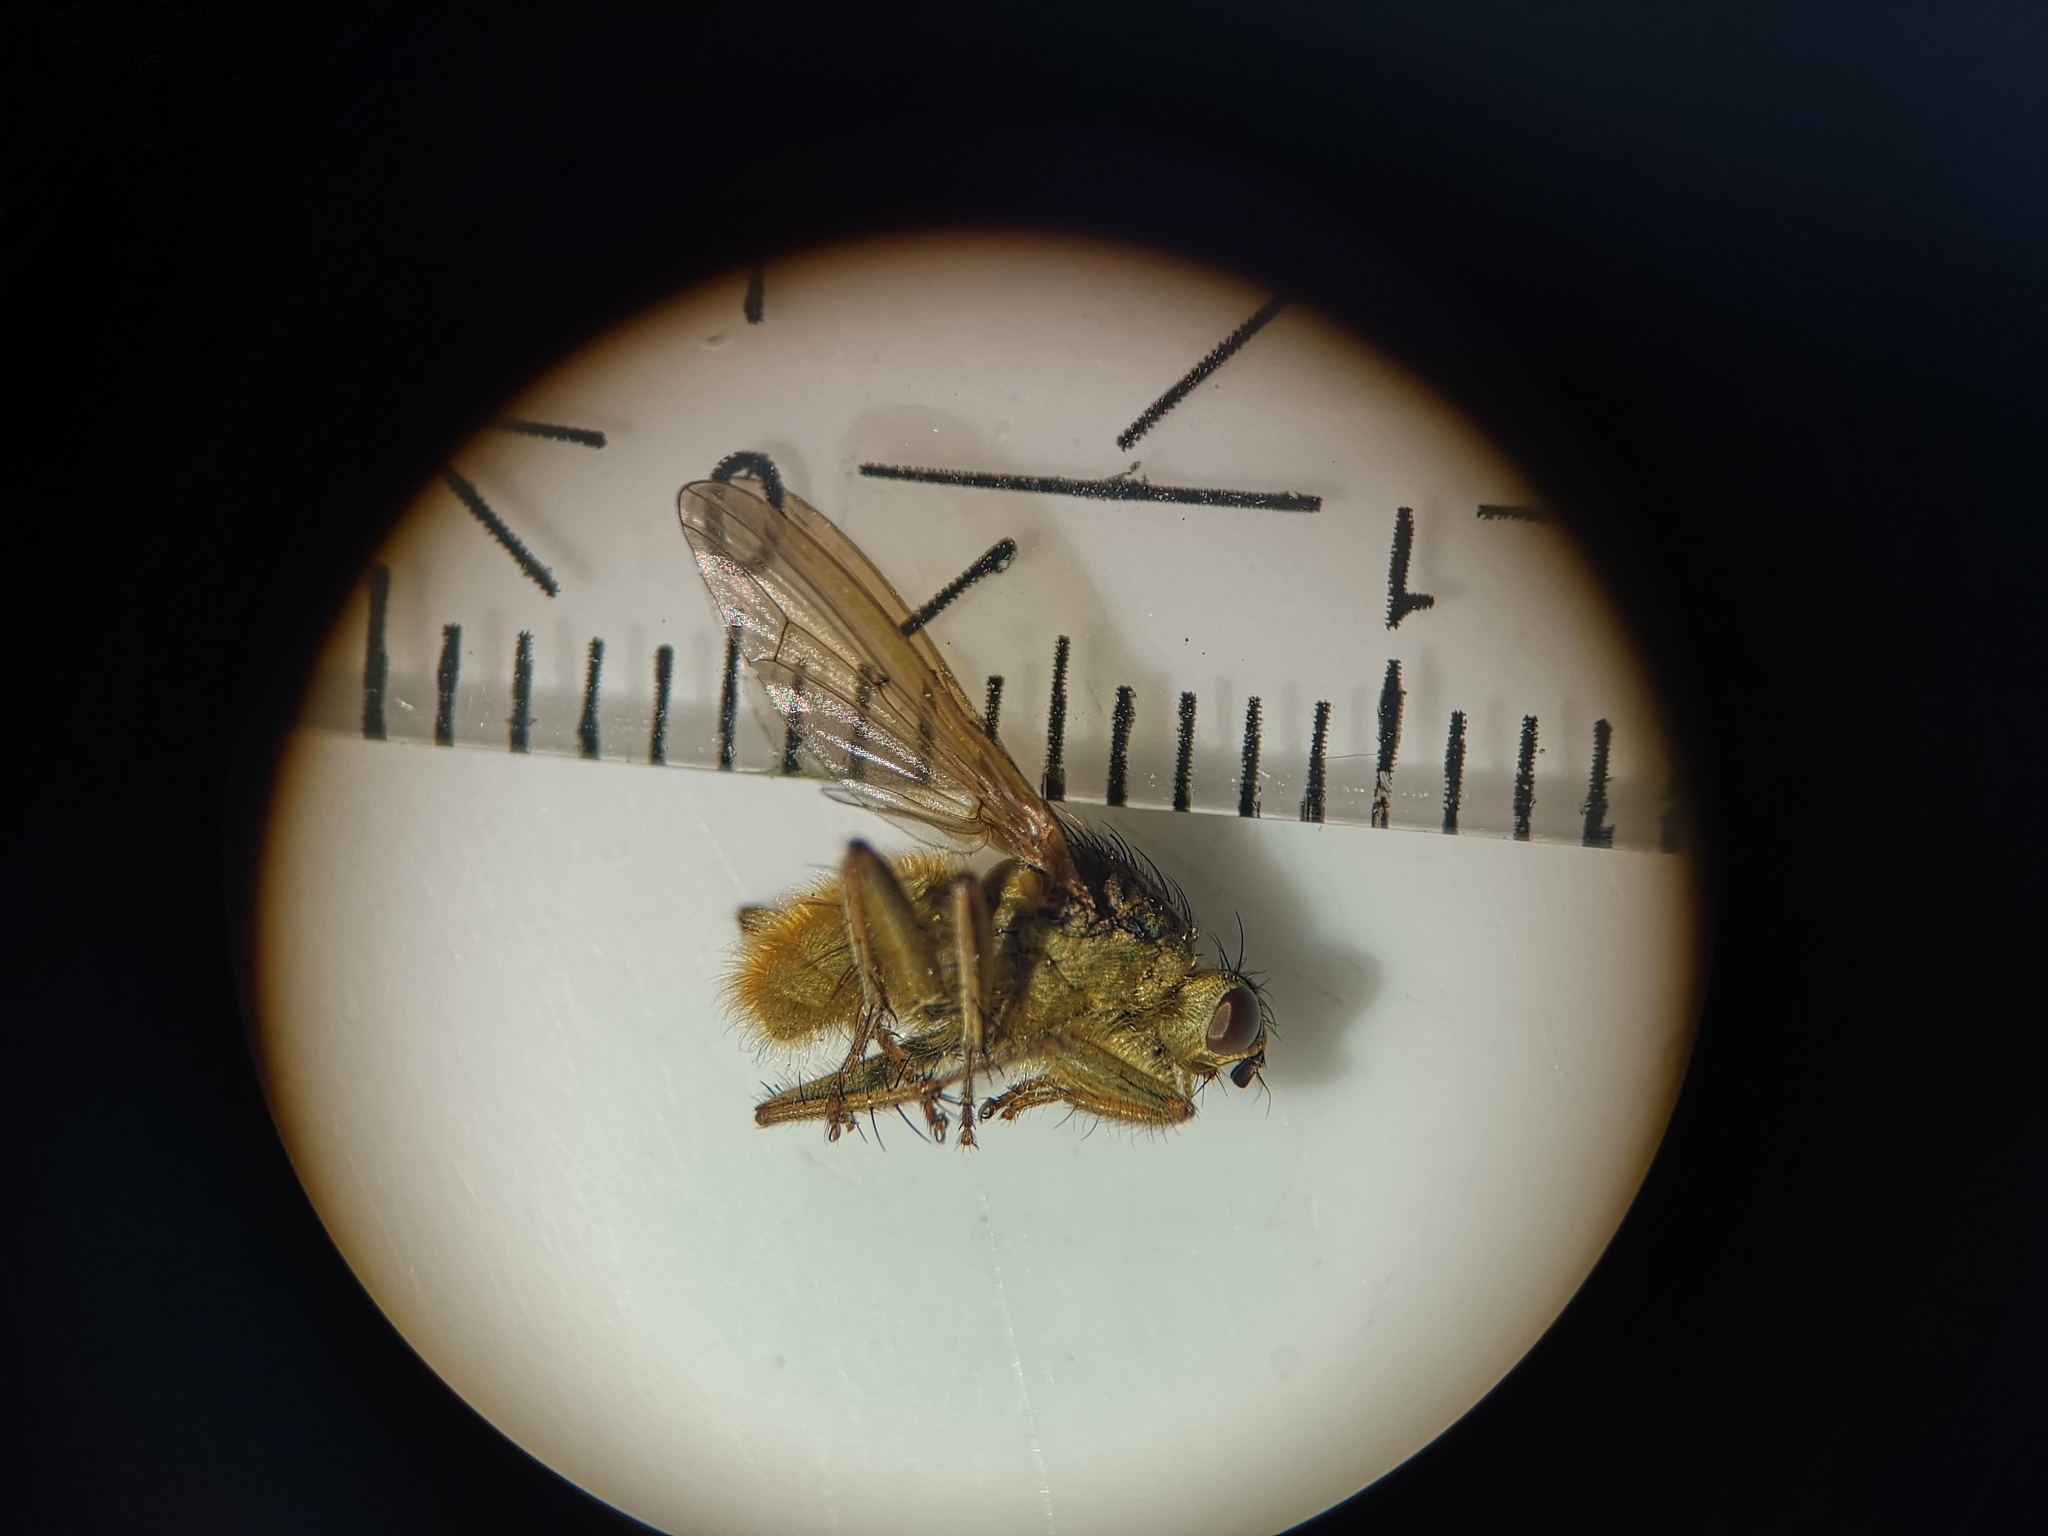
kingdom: Animalia
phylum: Arthropoda
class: Insecta
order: Diptera
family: Scathophagidae
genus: Scathophaga
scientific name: Scathophaga stercoraria
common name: Yellow dung fly
